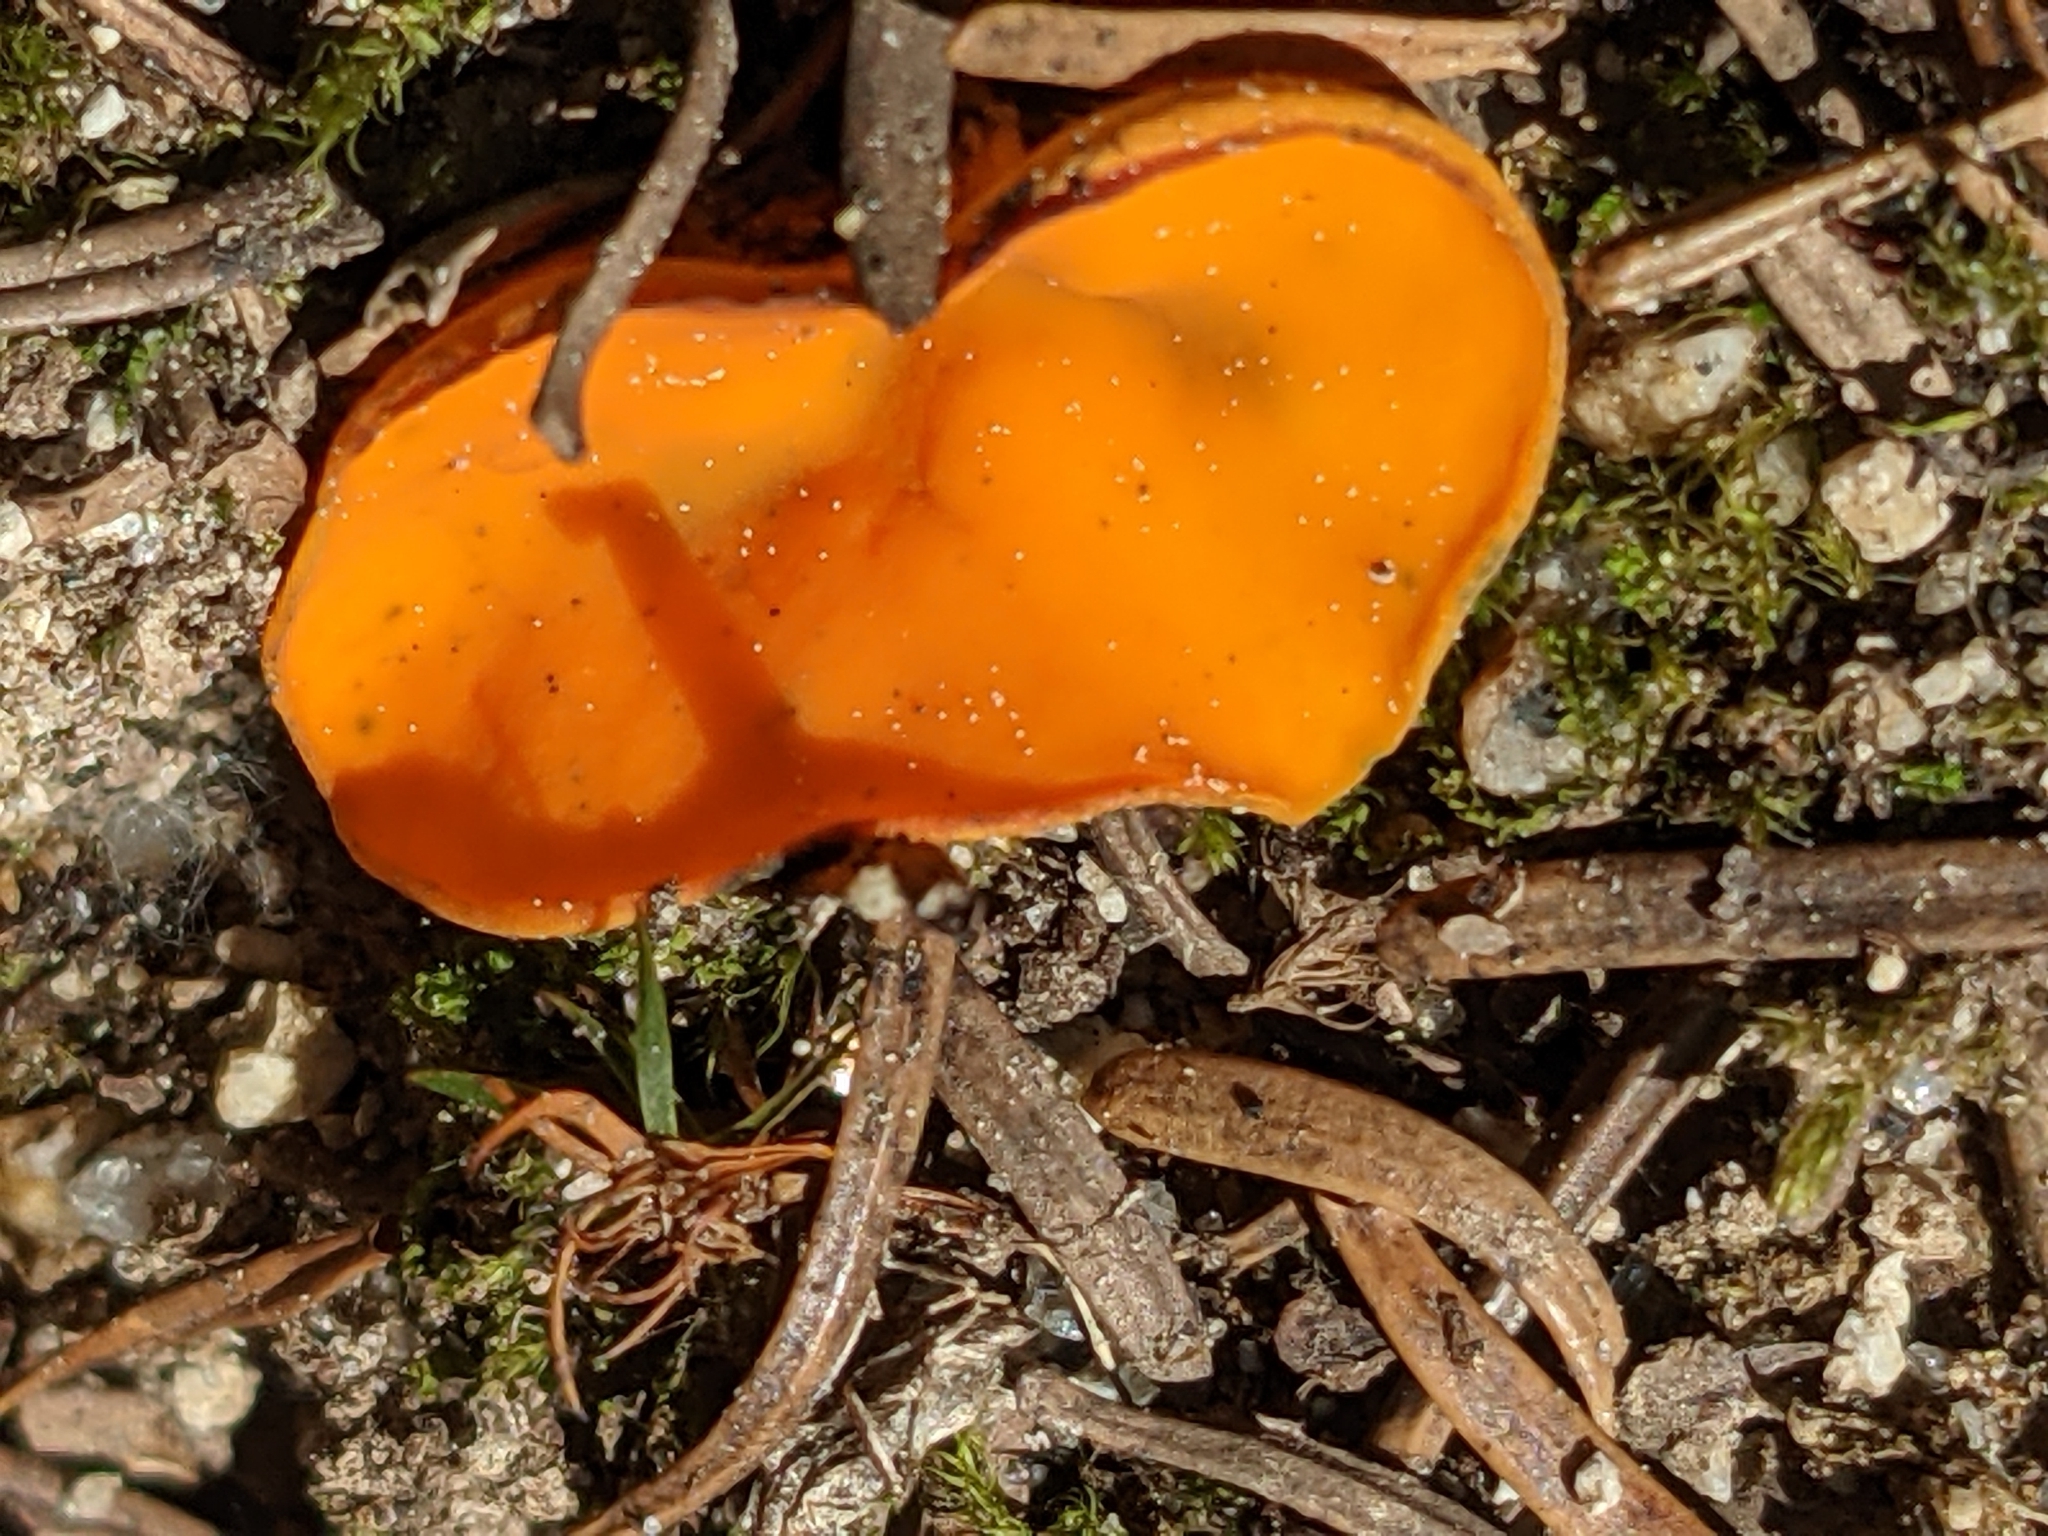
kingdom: Fungi
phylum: Ascomycota
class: Pezizomycetes
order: Pezizales
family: Caloscyphaceae
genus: Caloscypha
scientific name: Caloscypha fulgens
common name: Golden cup
